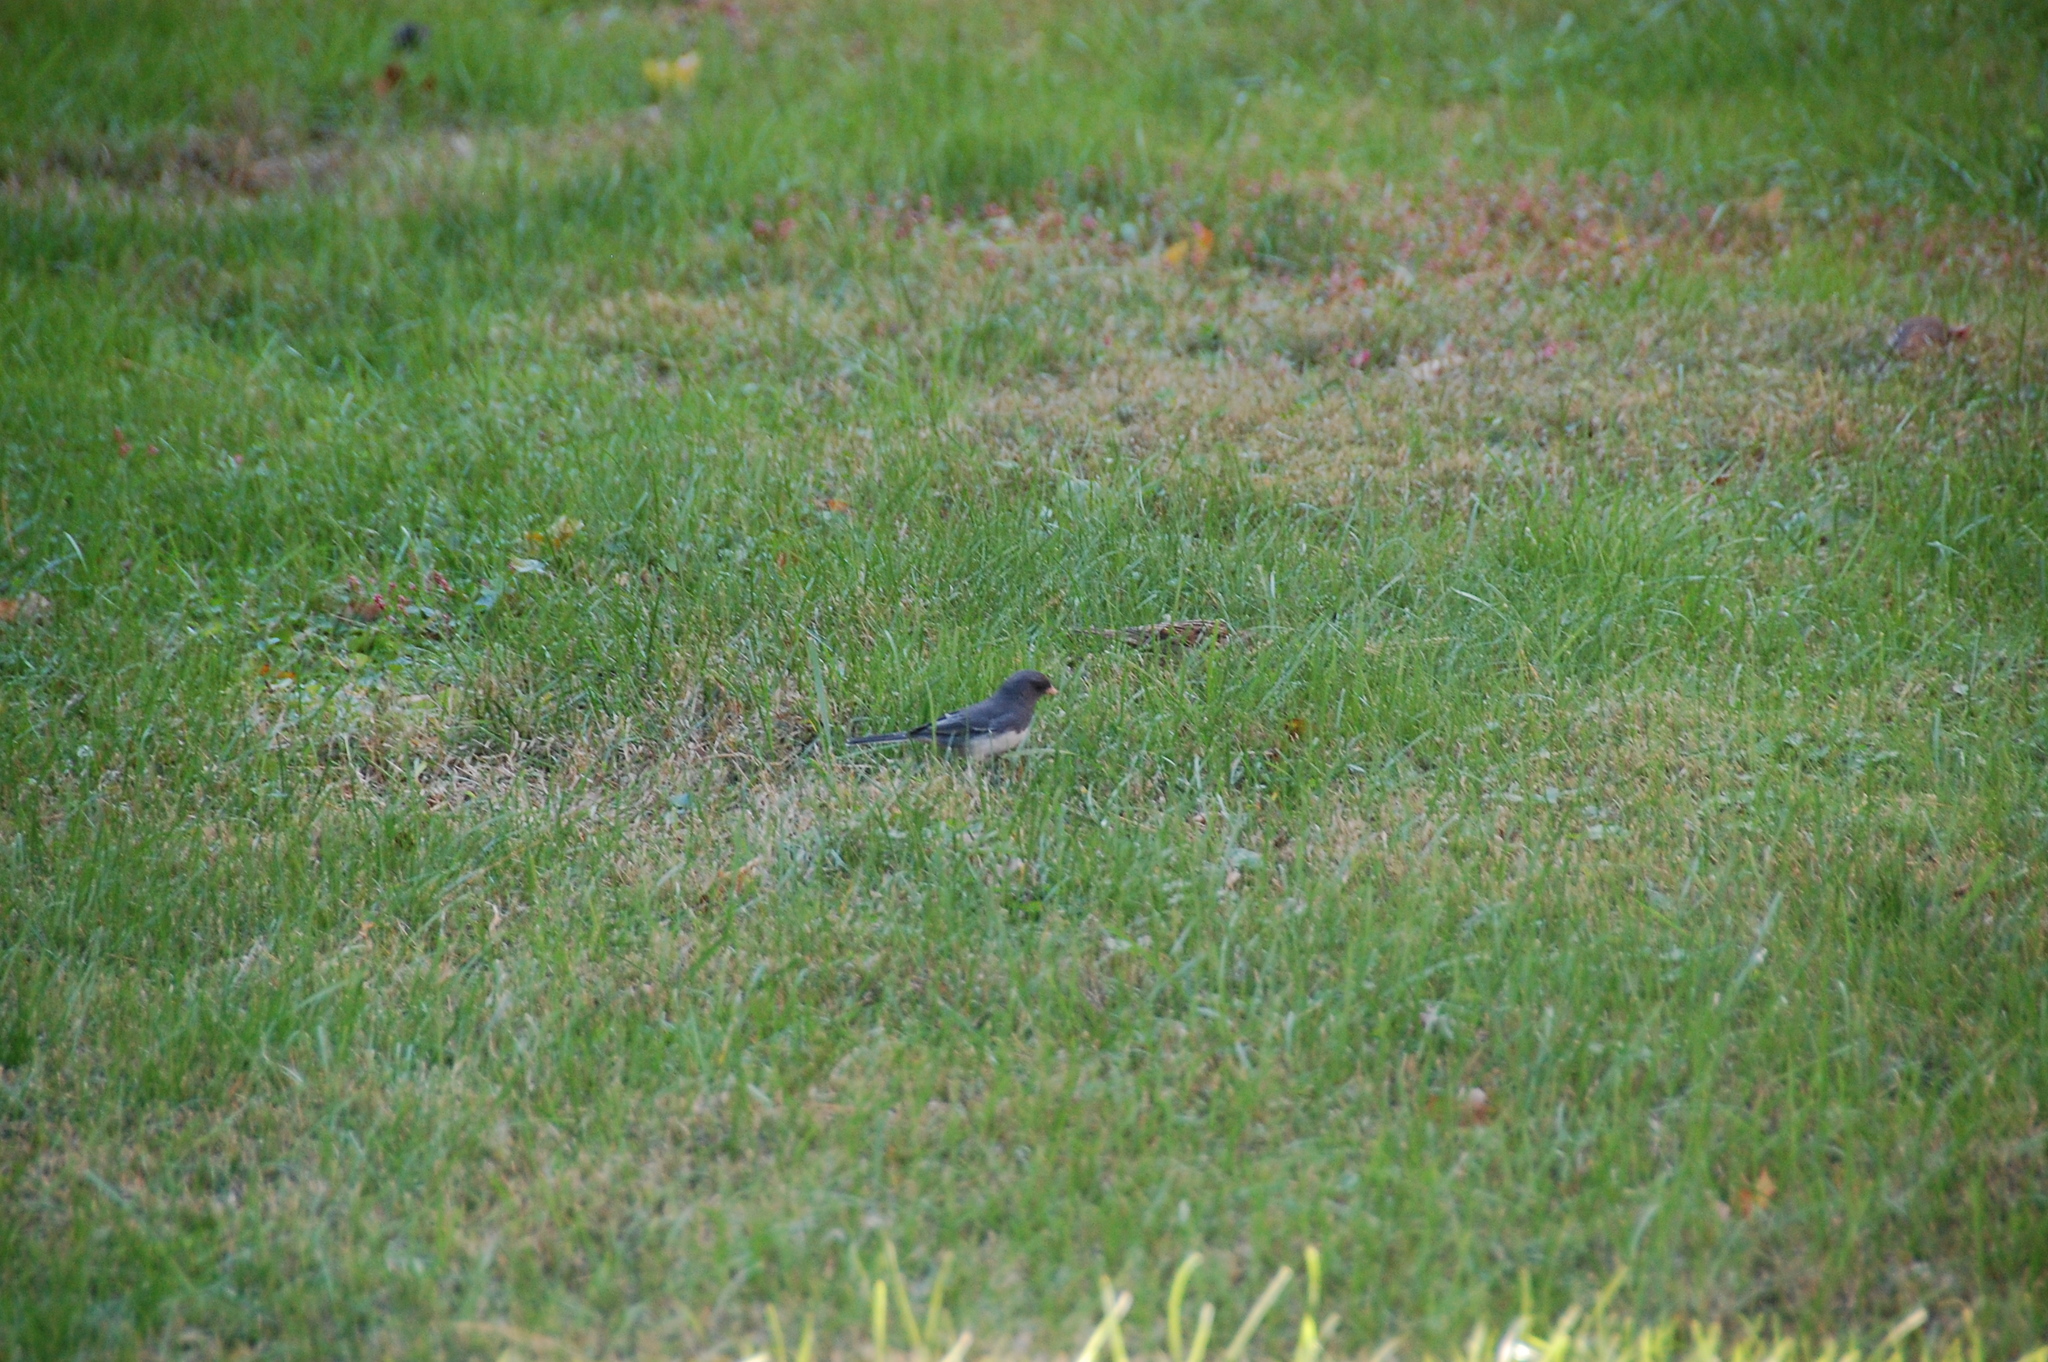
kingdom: Animalia
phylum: Chordata
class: Aves
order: Passeriformes
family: Passerellidae
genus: Junco
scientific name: Junco hyemalis
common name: Dark-eyed junco
